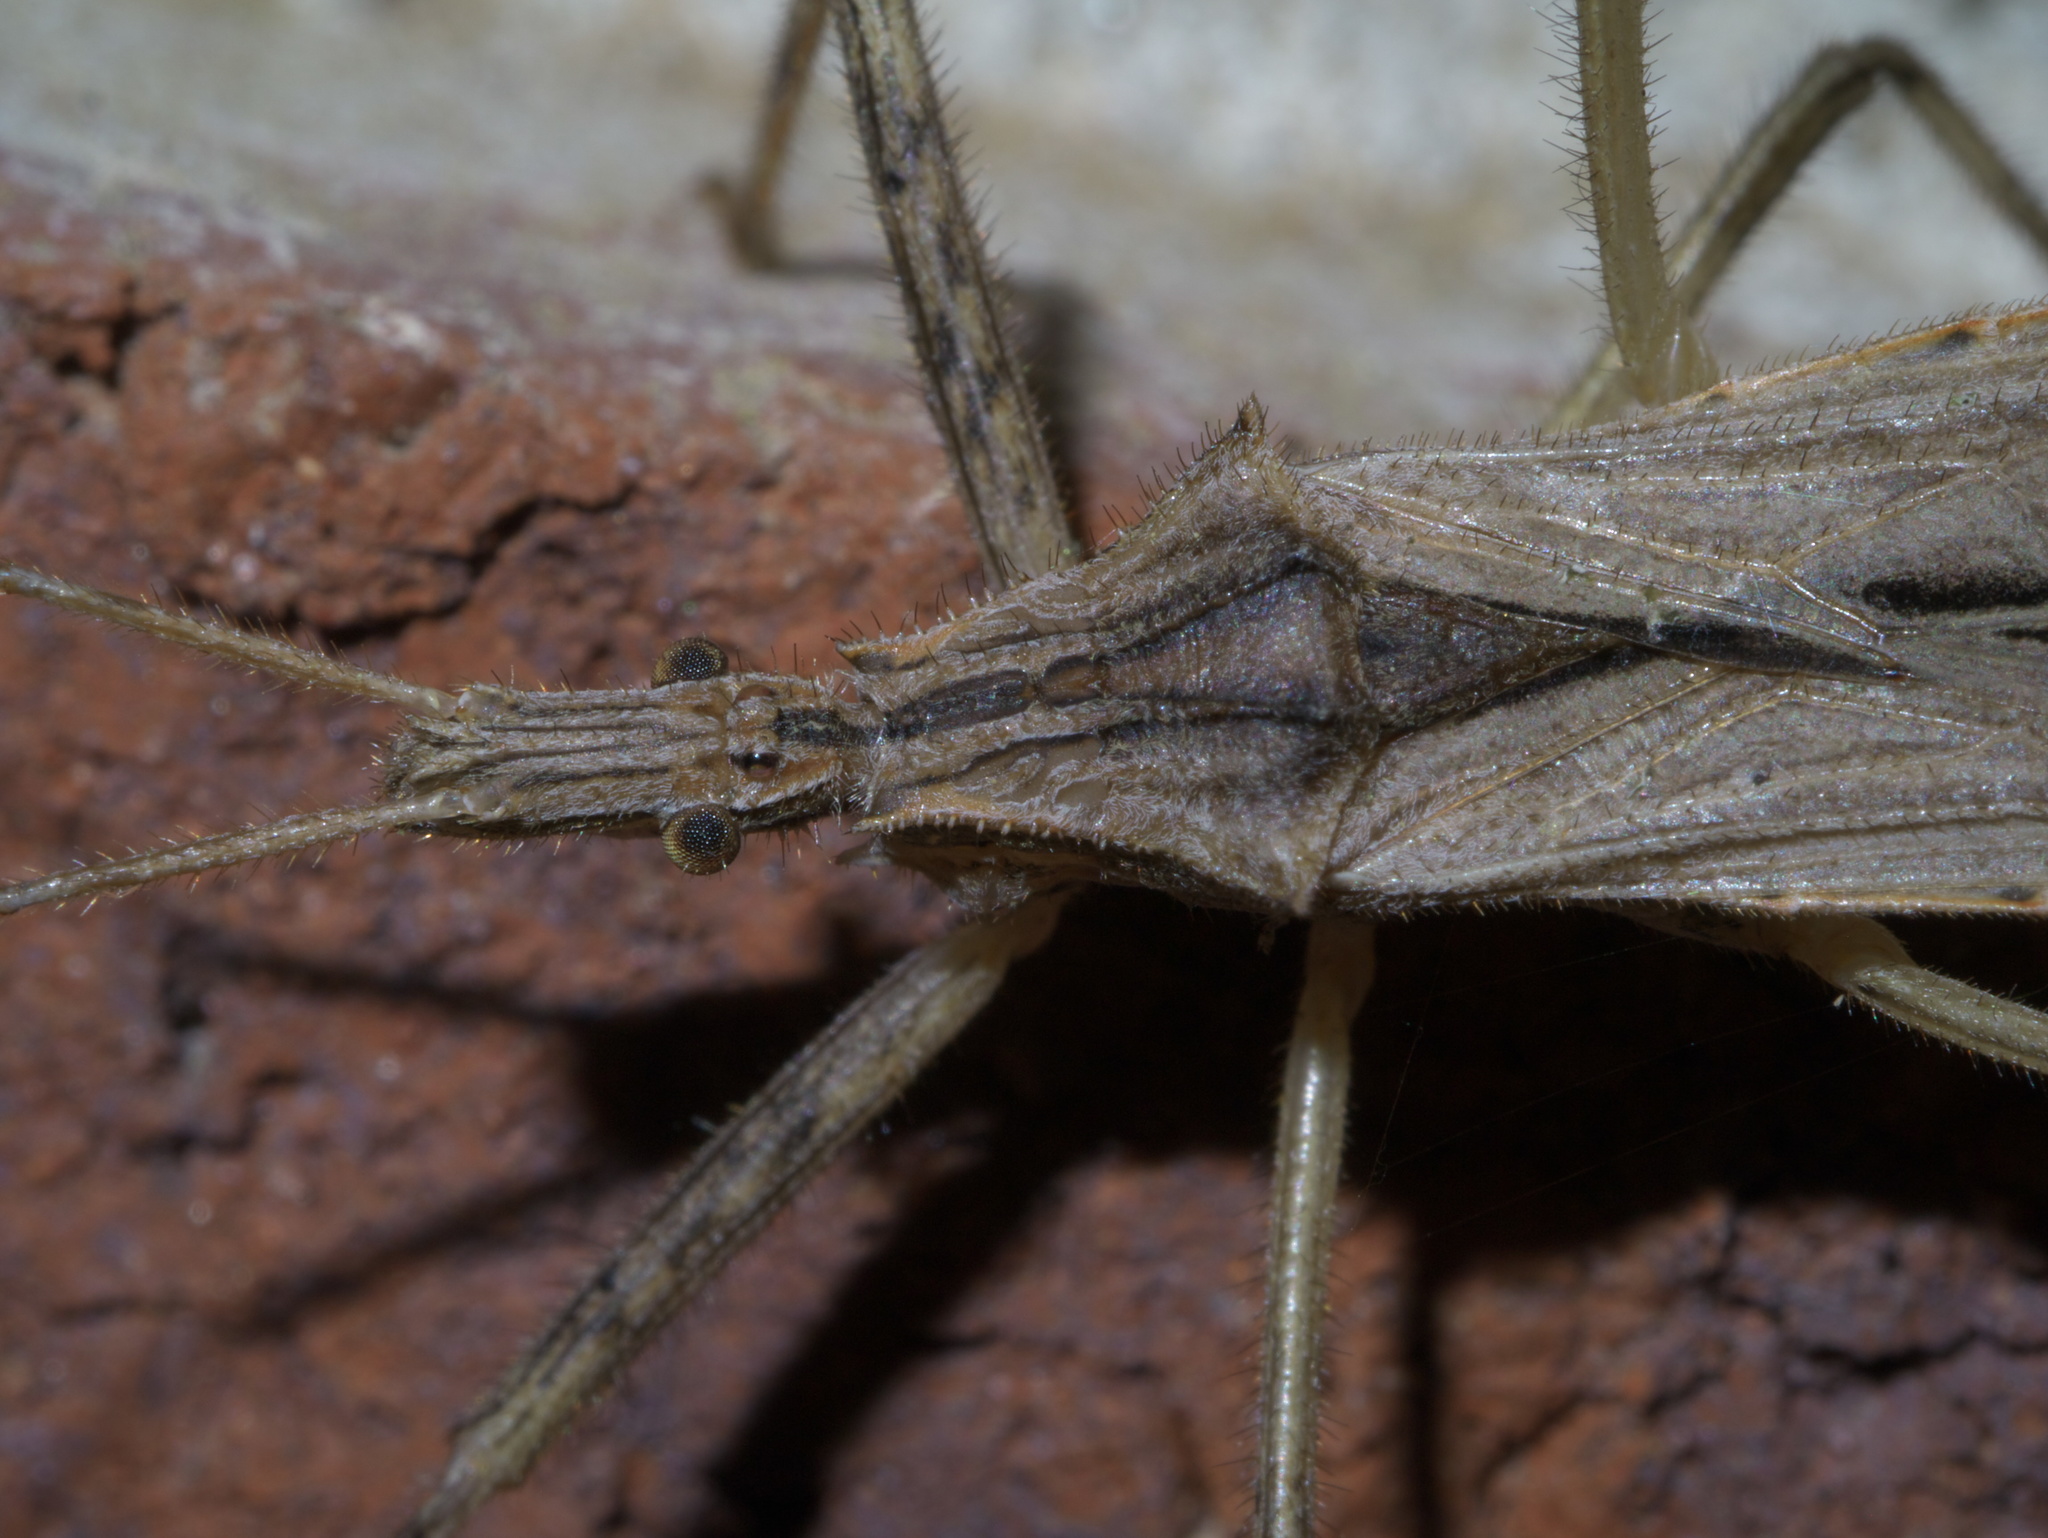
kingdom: Animalia
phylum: Arthropoda
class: Insecta
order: Hemiptera
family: Reduviidae
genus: Stenopoda
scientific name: Stenopoda spinulosa
